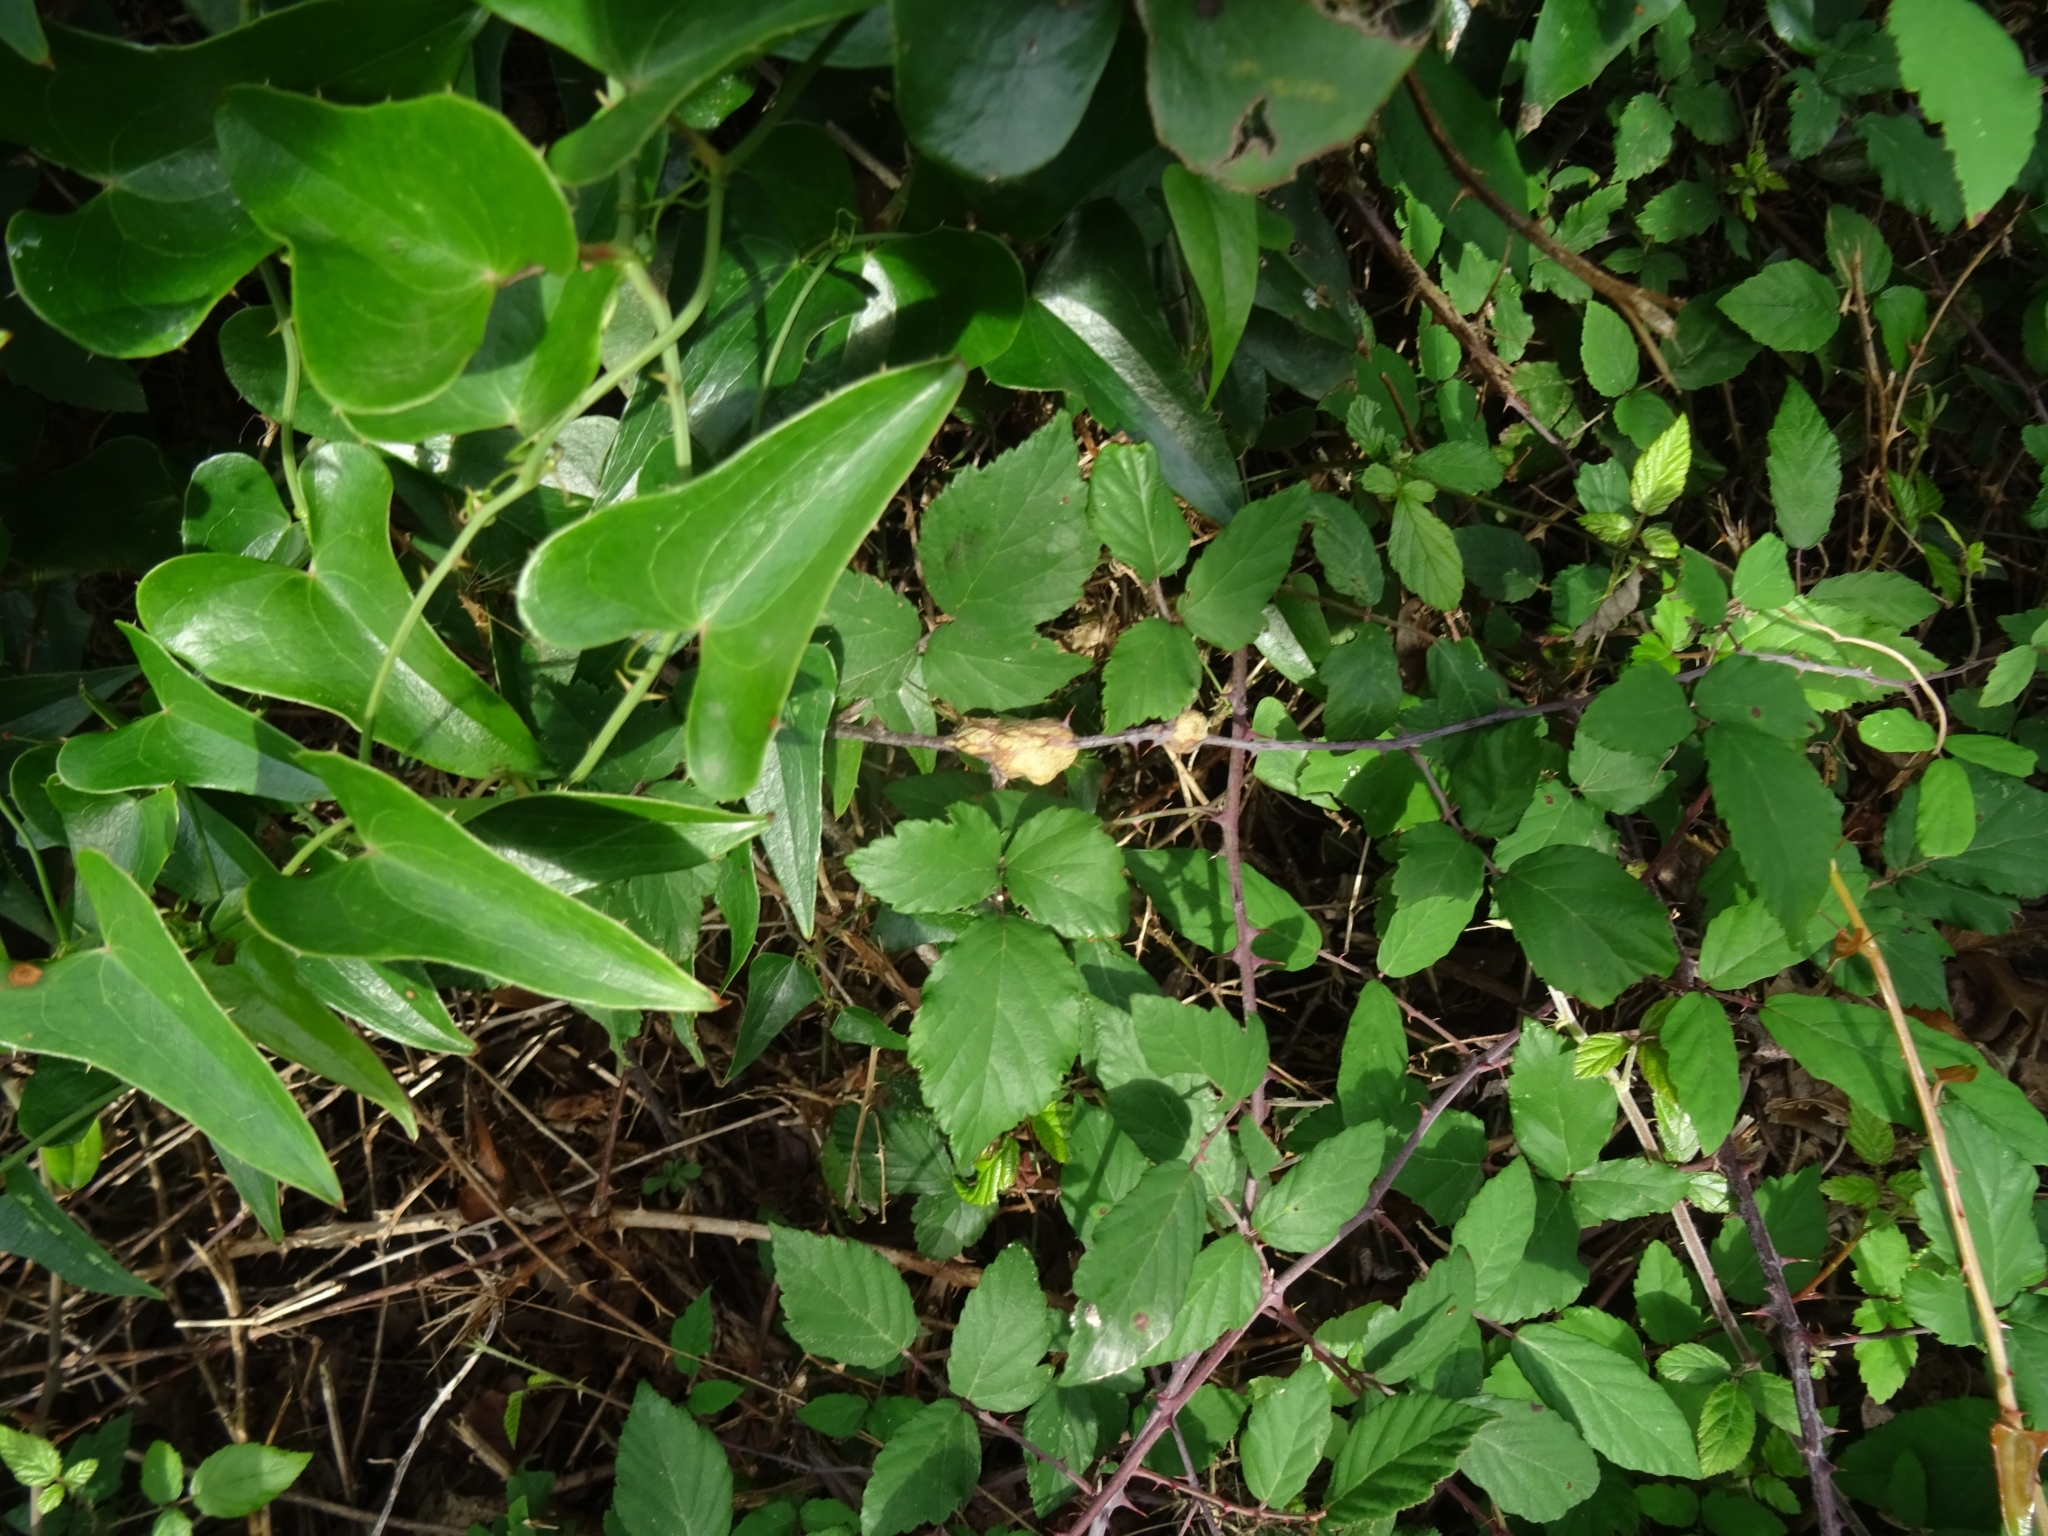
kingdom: Animalia
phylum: Arthropoda
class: Insecta
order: Diptera
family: Cecidomyiidae
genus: Lasioptera
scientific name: Lasioptera rubi
